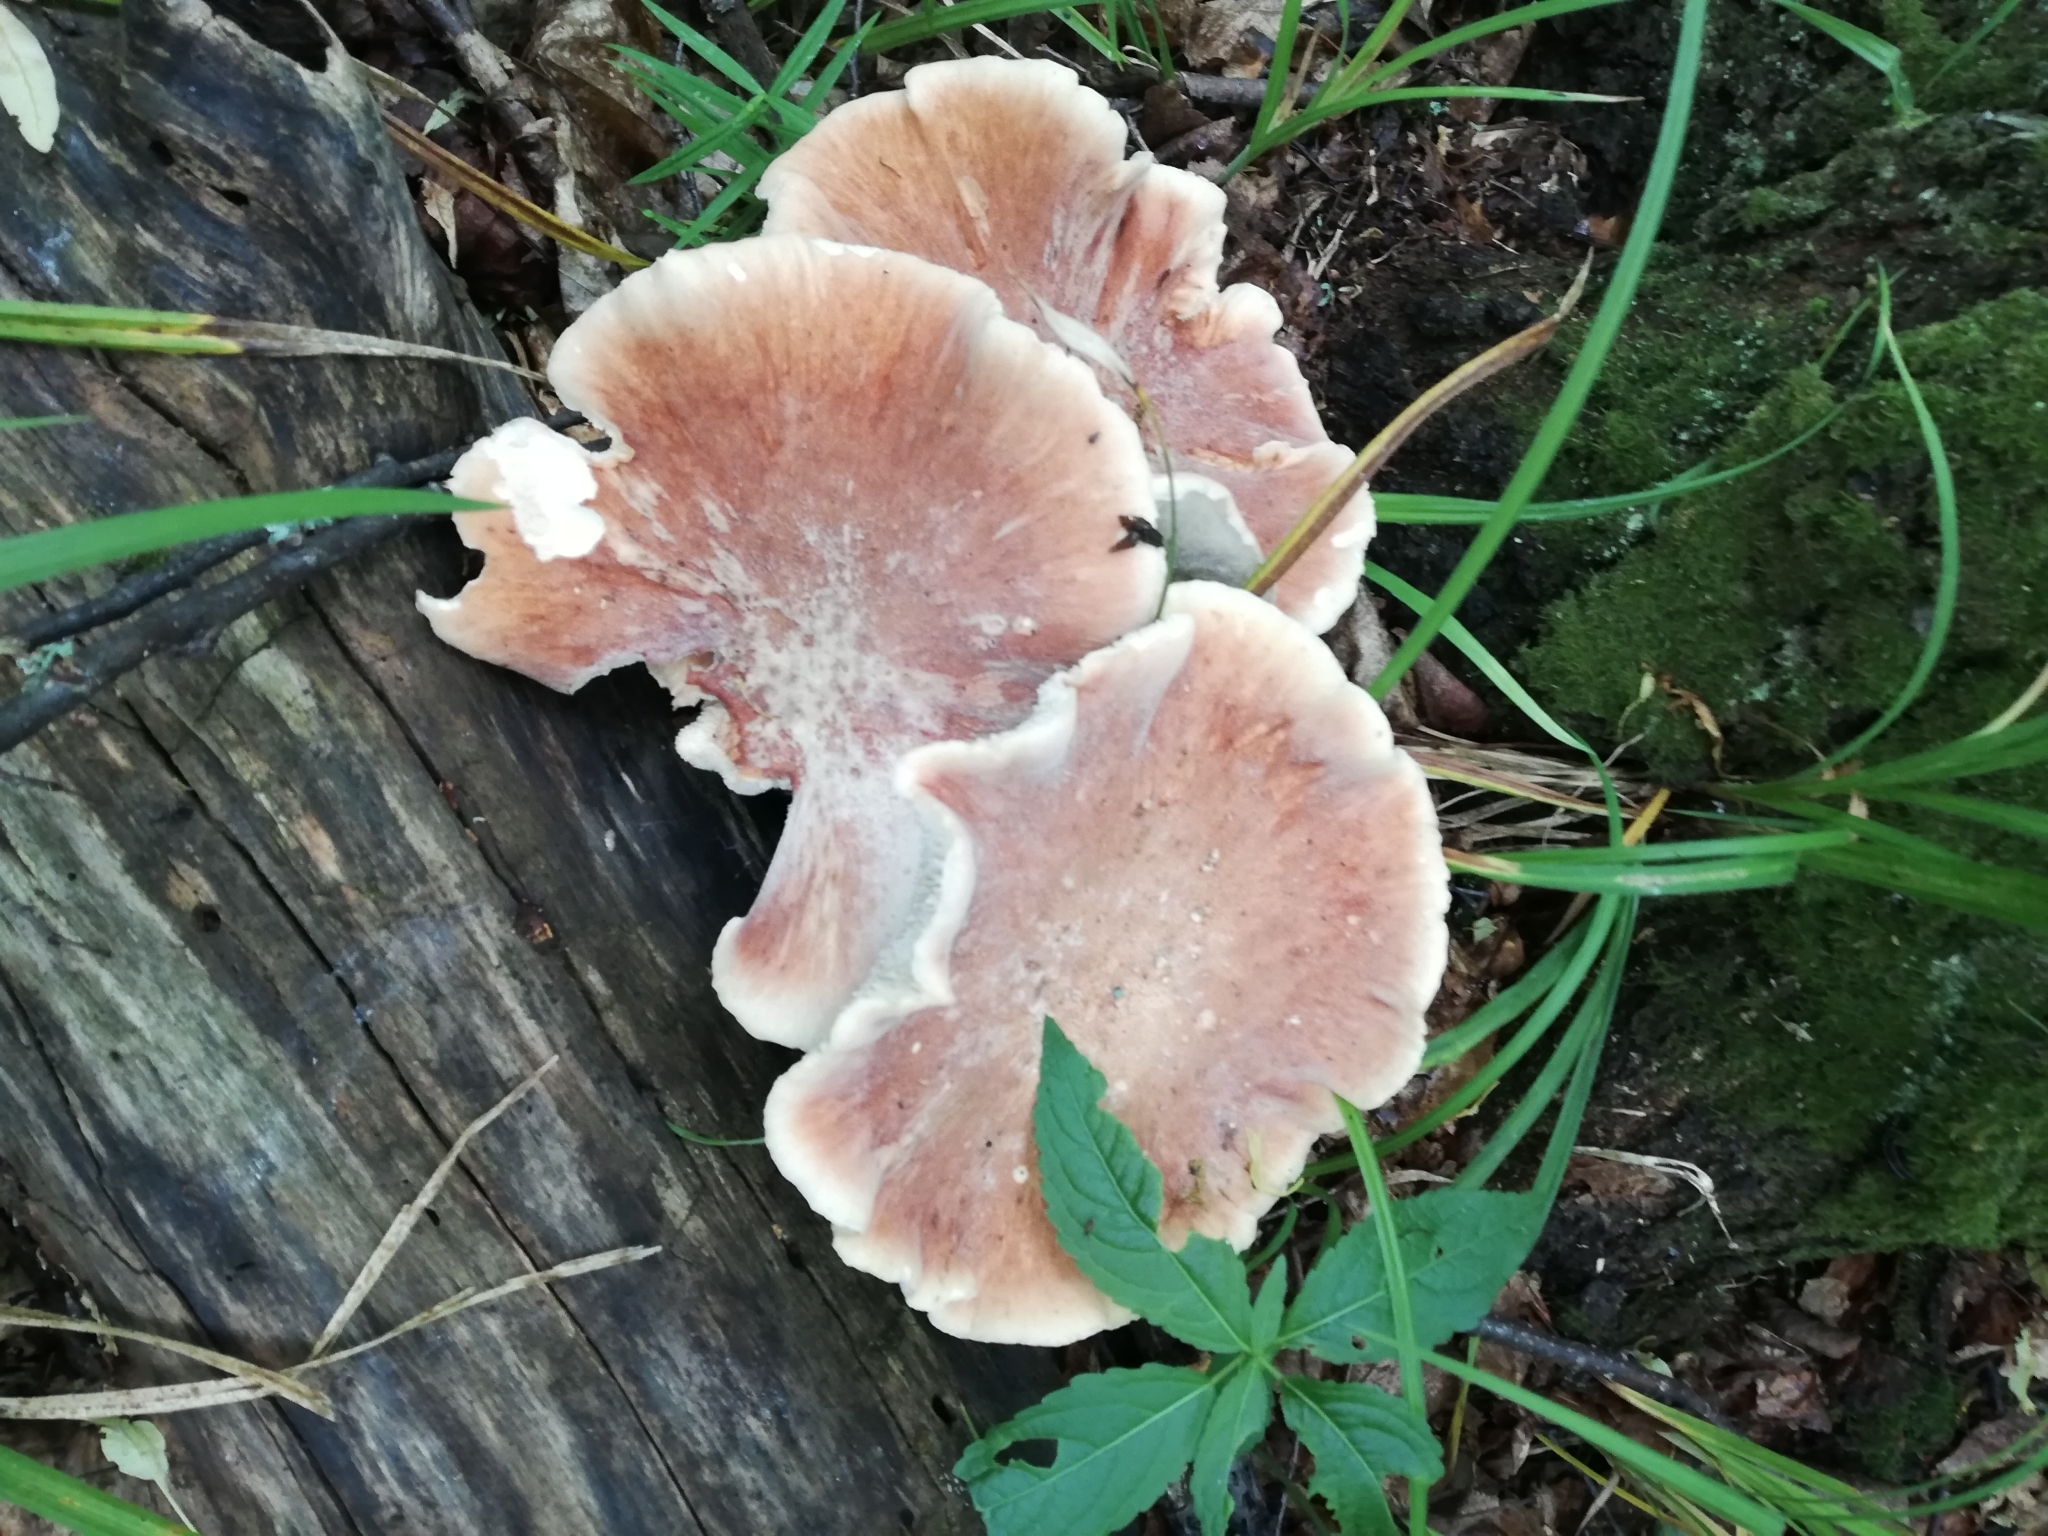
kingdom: Fungi
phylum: Basidiomycota
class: Agaricomycetes
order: Gloeophyllales
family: Gloeophyllaceae
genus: Neolentinus
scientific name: Neolentinus cyathiformis
